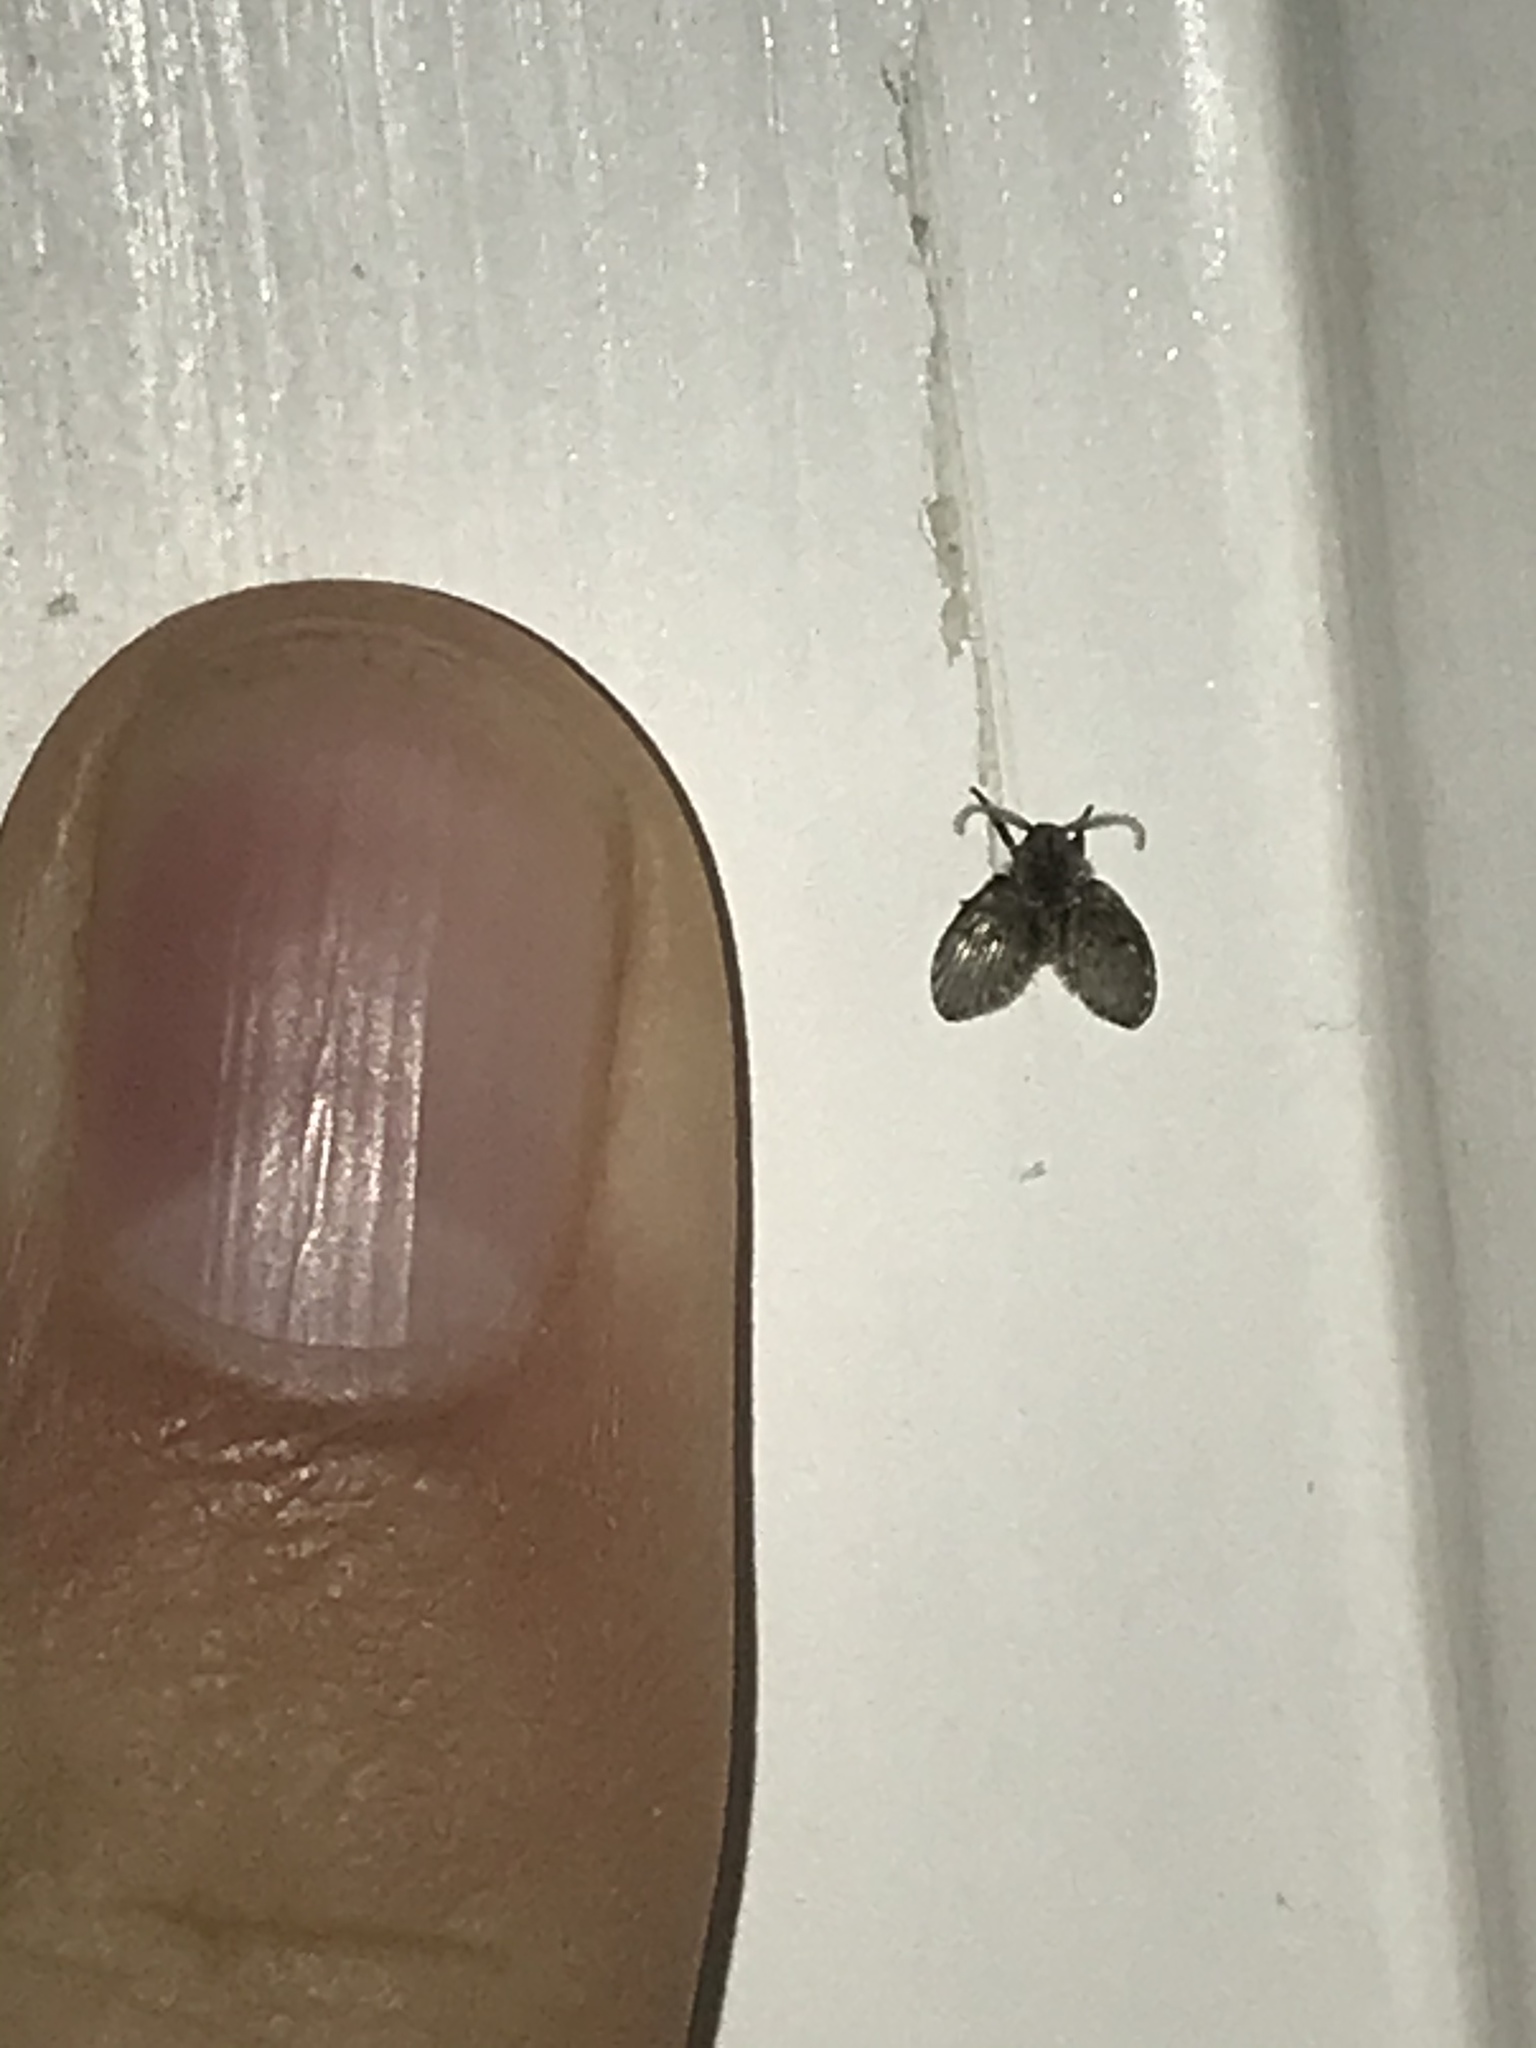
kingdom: Animalia
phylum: Arthropoda
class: Insecta
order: Diptera
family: Psychodidae
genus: Clogmia
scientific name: Clogmia albipunctatus
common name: White-spotted moth fly
